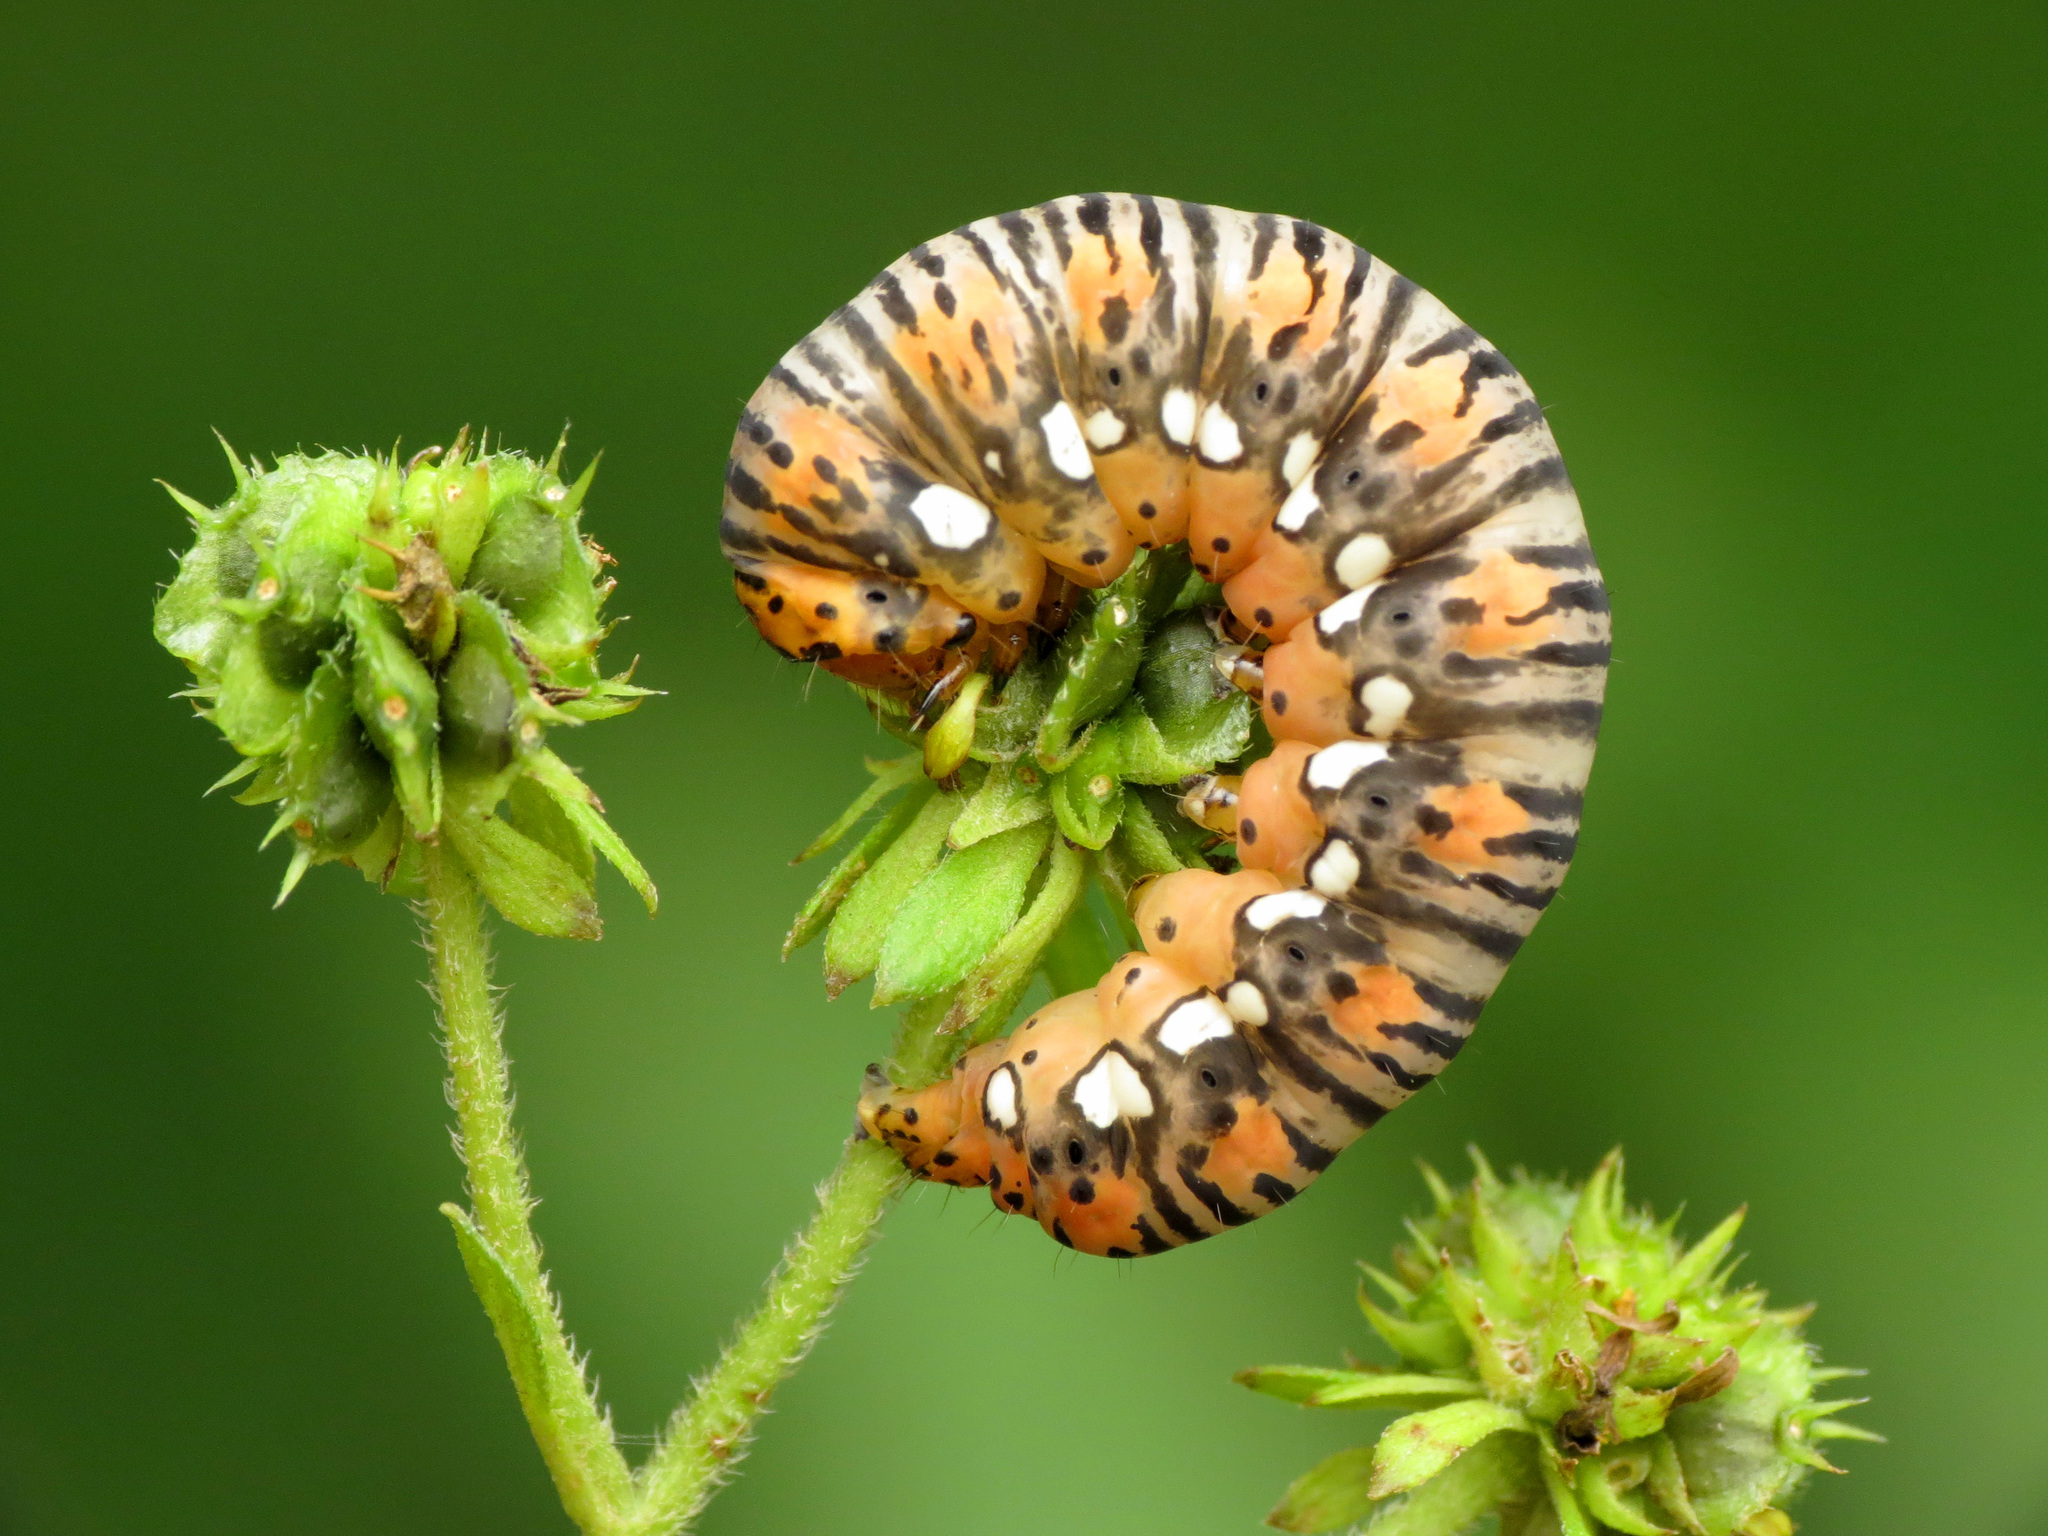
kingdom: Animalia
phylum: Arthropoda
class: Insecta
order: Lepidoptera
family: Noctuidae
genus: Basilodes
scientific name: Basilodes pepita
